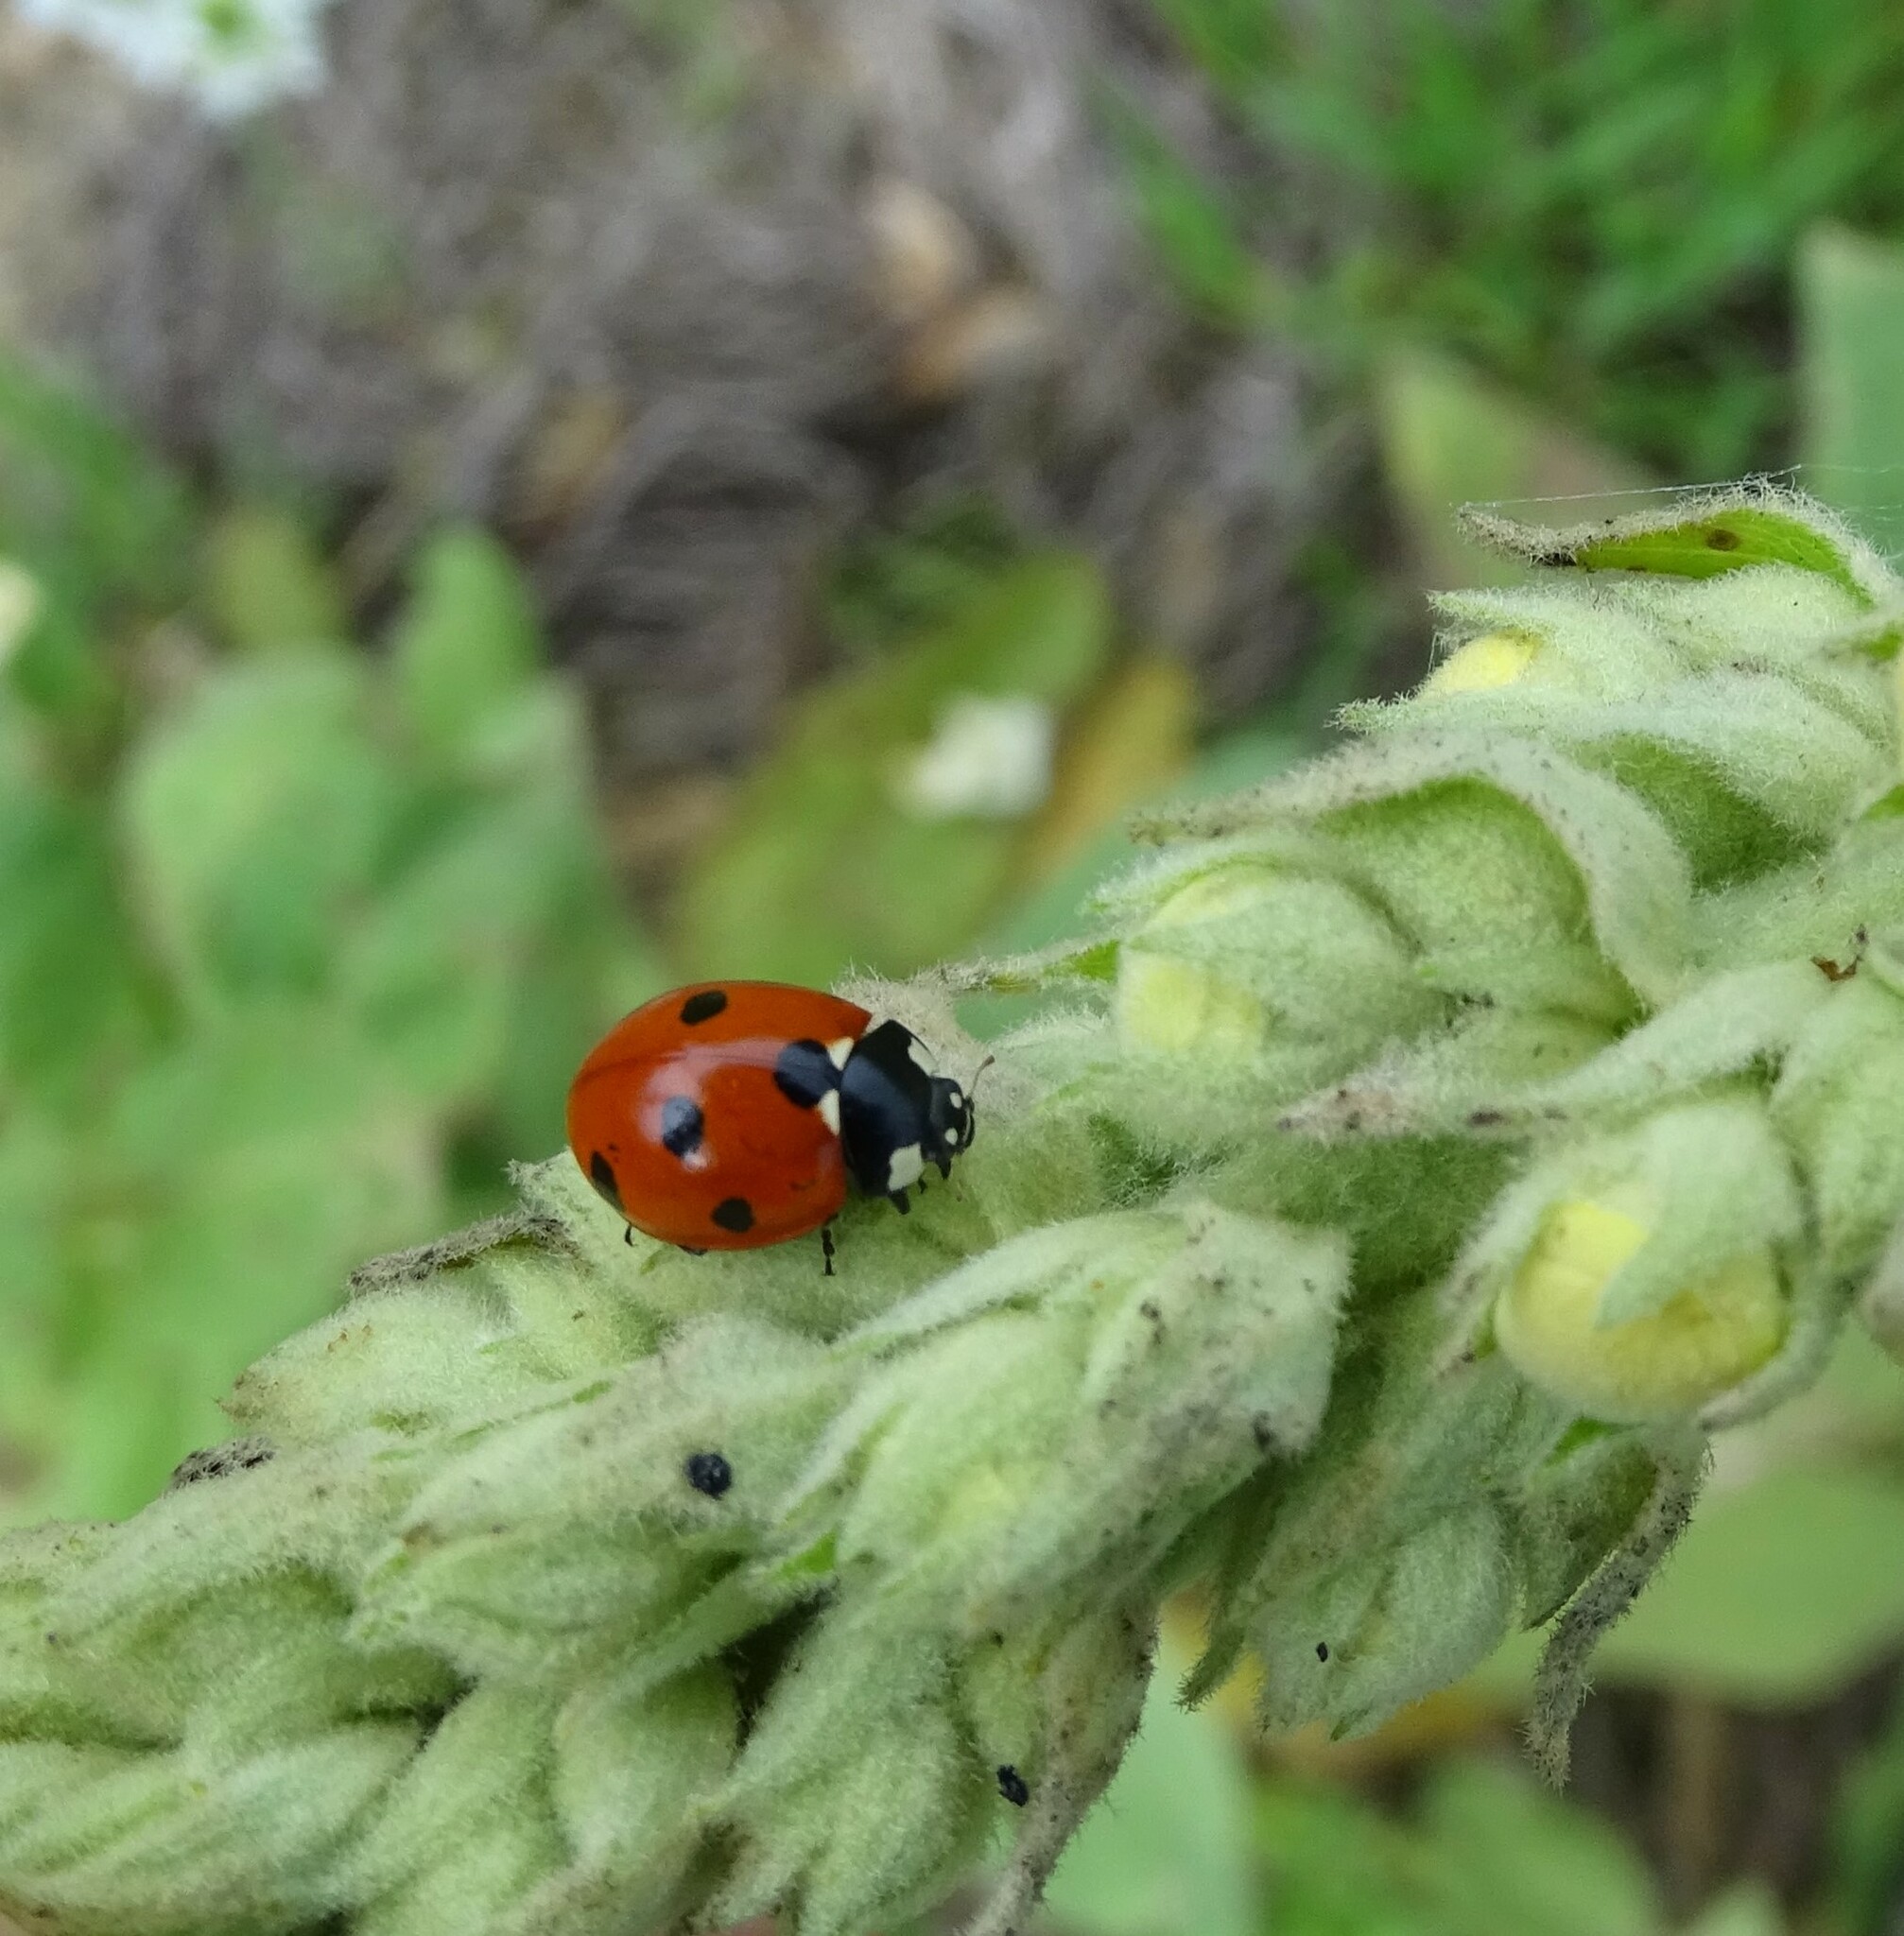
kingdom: Animalia
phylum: Arthropoda
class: Insecta
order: Coleoptera
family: Coccinellidae
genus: Coccinella
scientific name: Coccinella septempunctata
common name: Sevenspotted lady beetle
